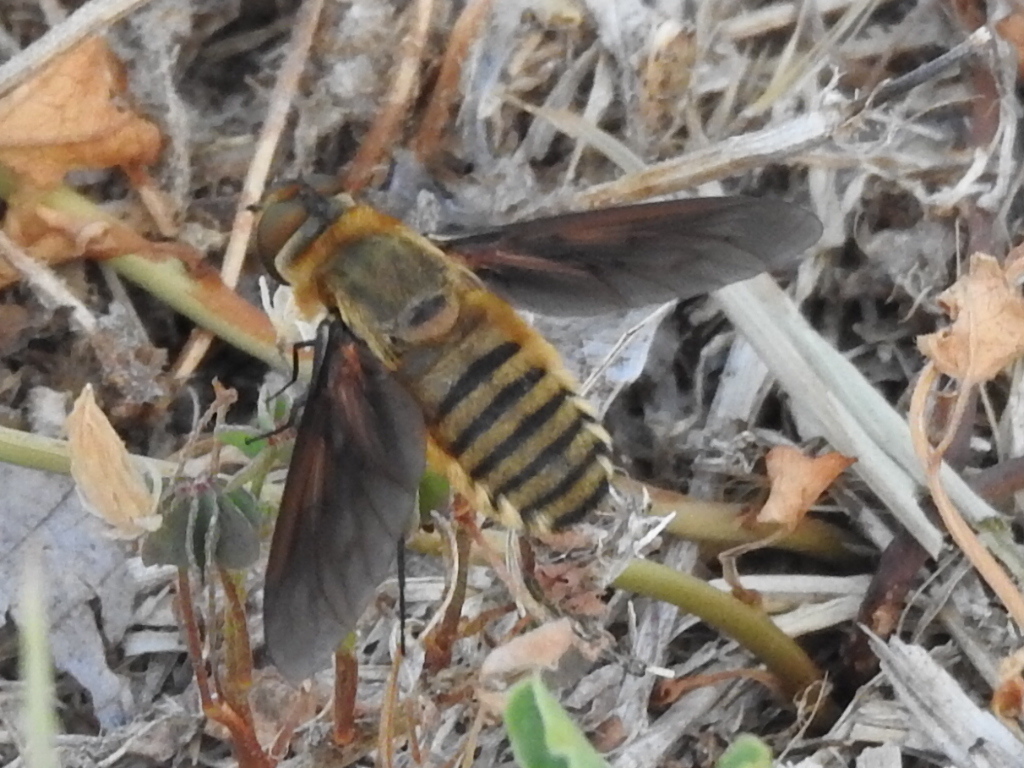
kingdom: Animalia
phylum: Arthropoda
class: Insecta
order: Diptera
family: Bombyliidae
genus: Poecilanthrax
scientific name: Poecilanthrax lucifer
